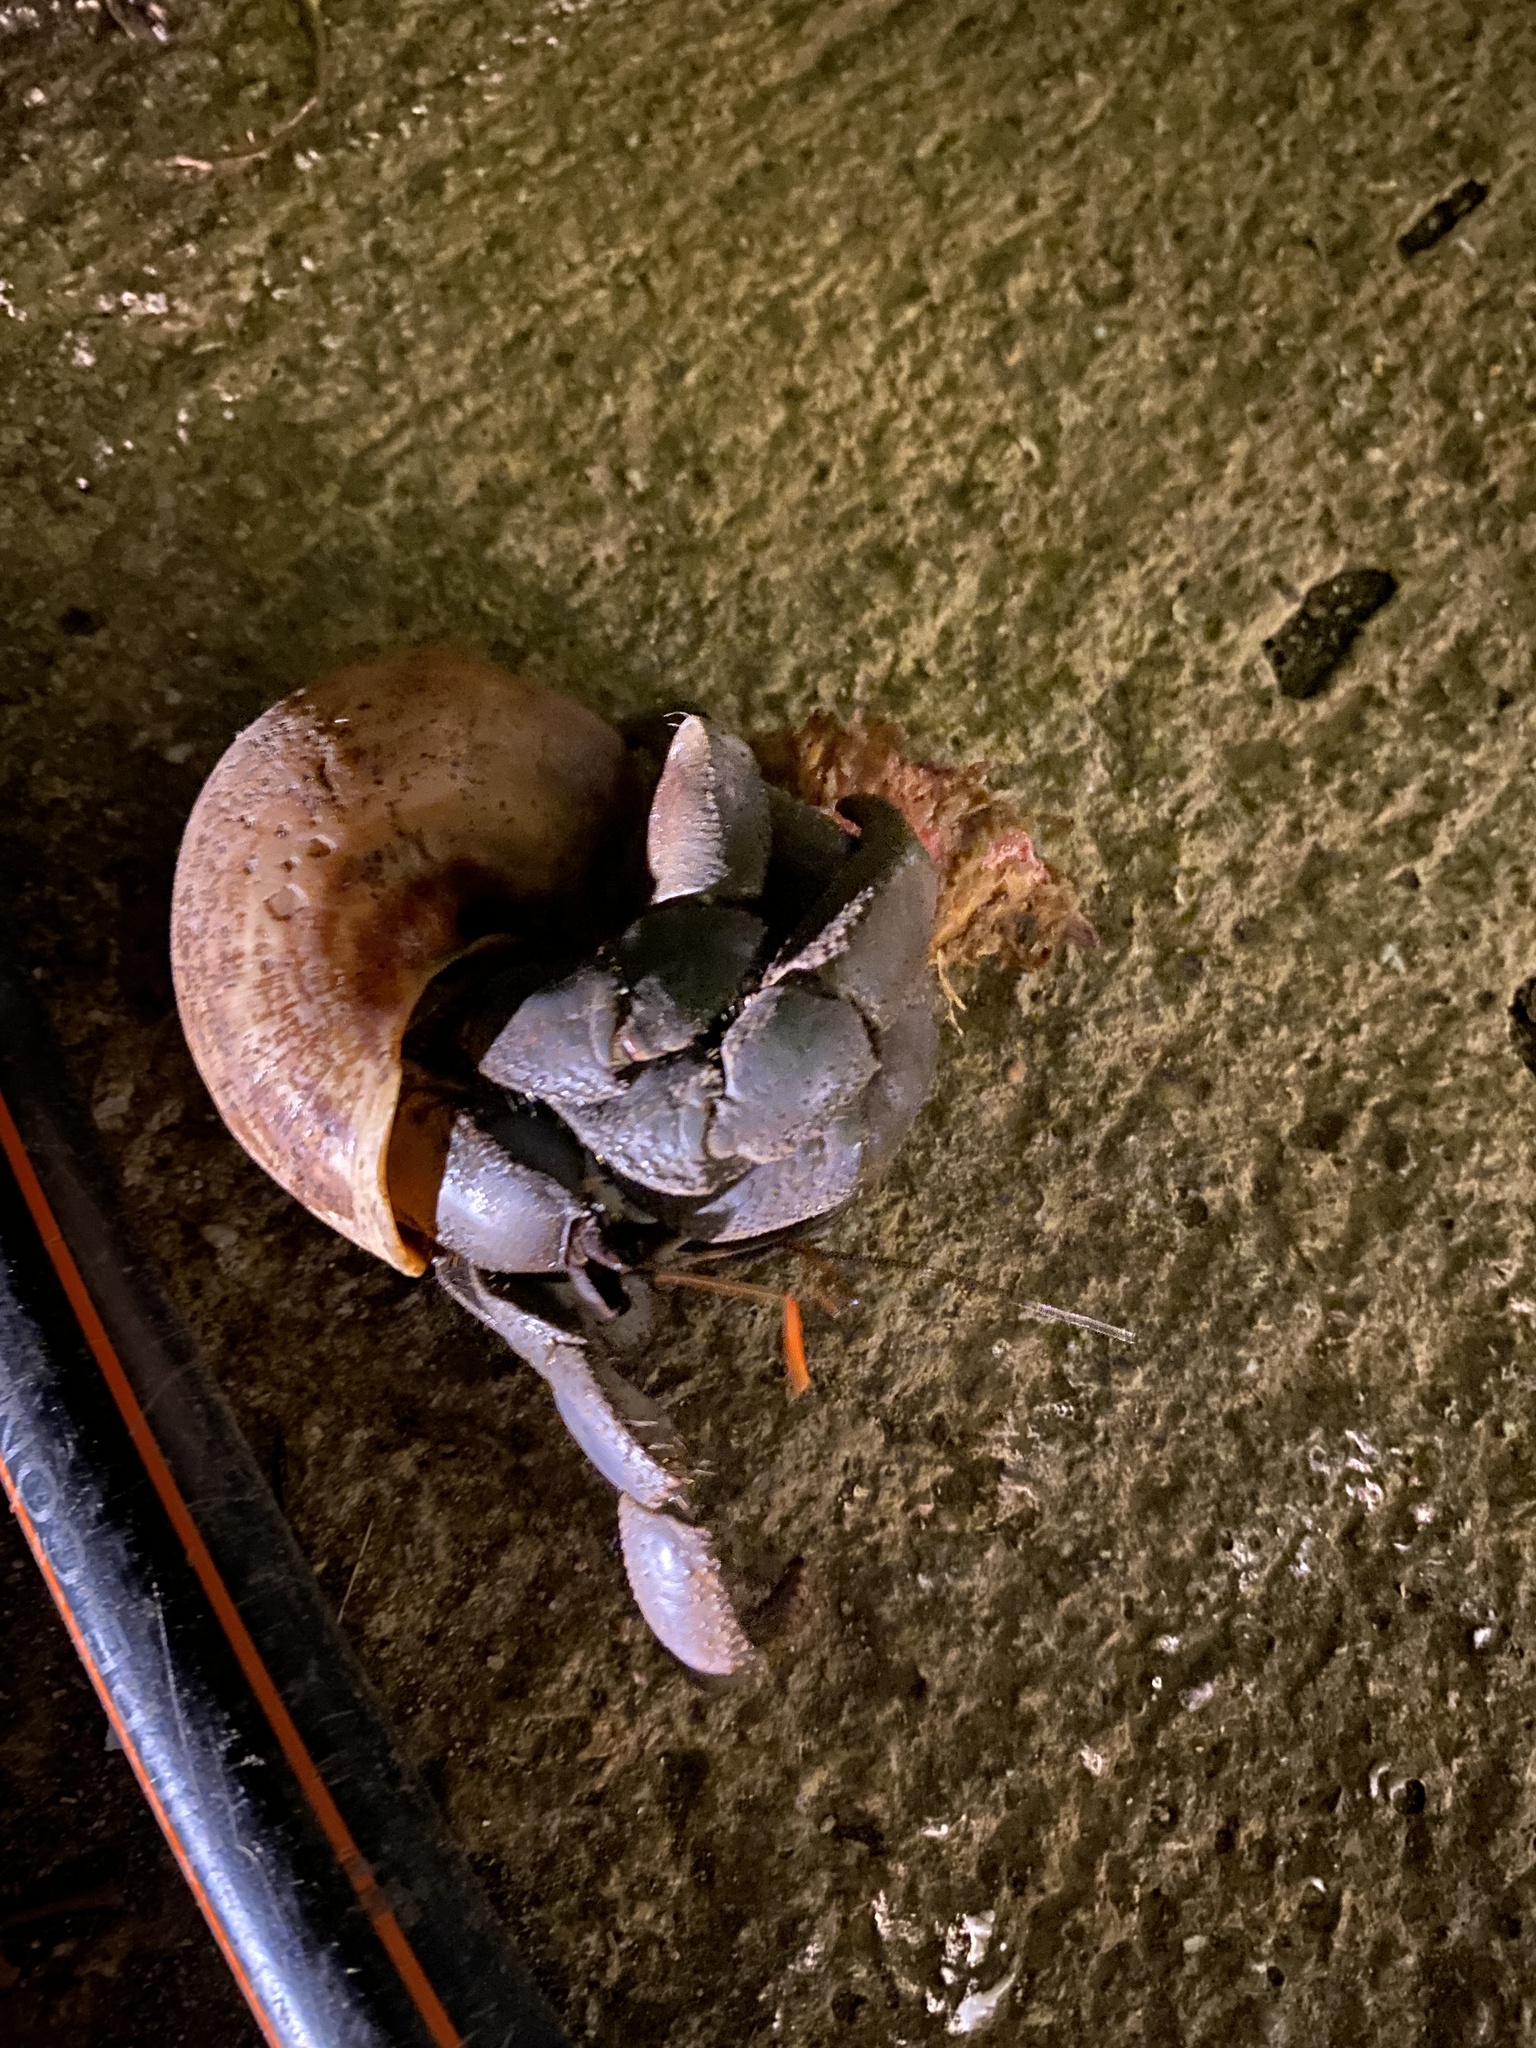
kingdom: Animalia
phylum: Arthropoda
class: Malacostraca
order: Decapoda
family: Coenobitidae
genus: Coenobita
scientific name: Coenobita violascens
